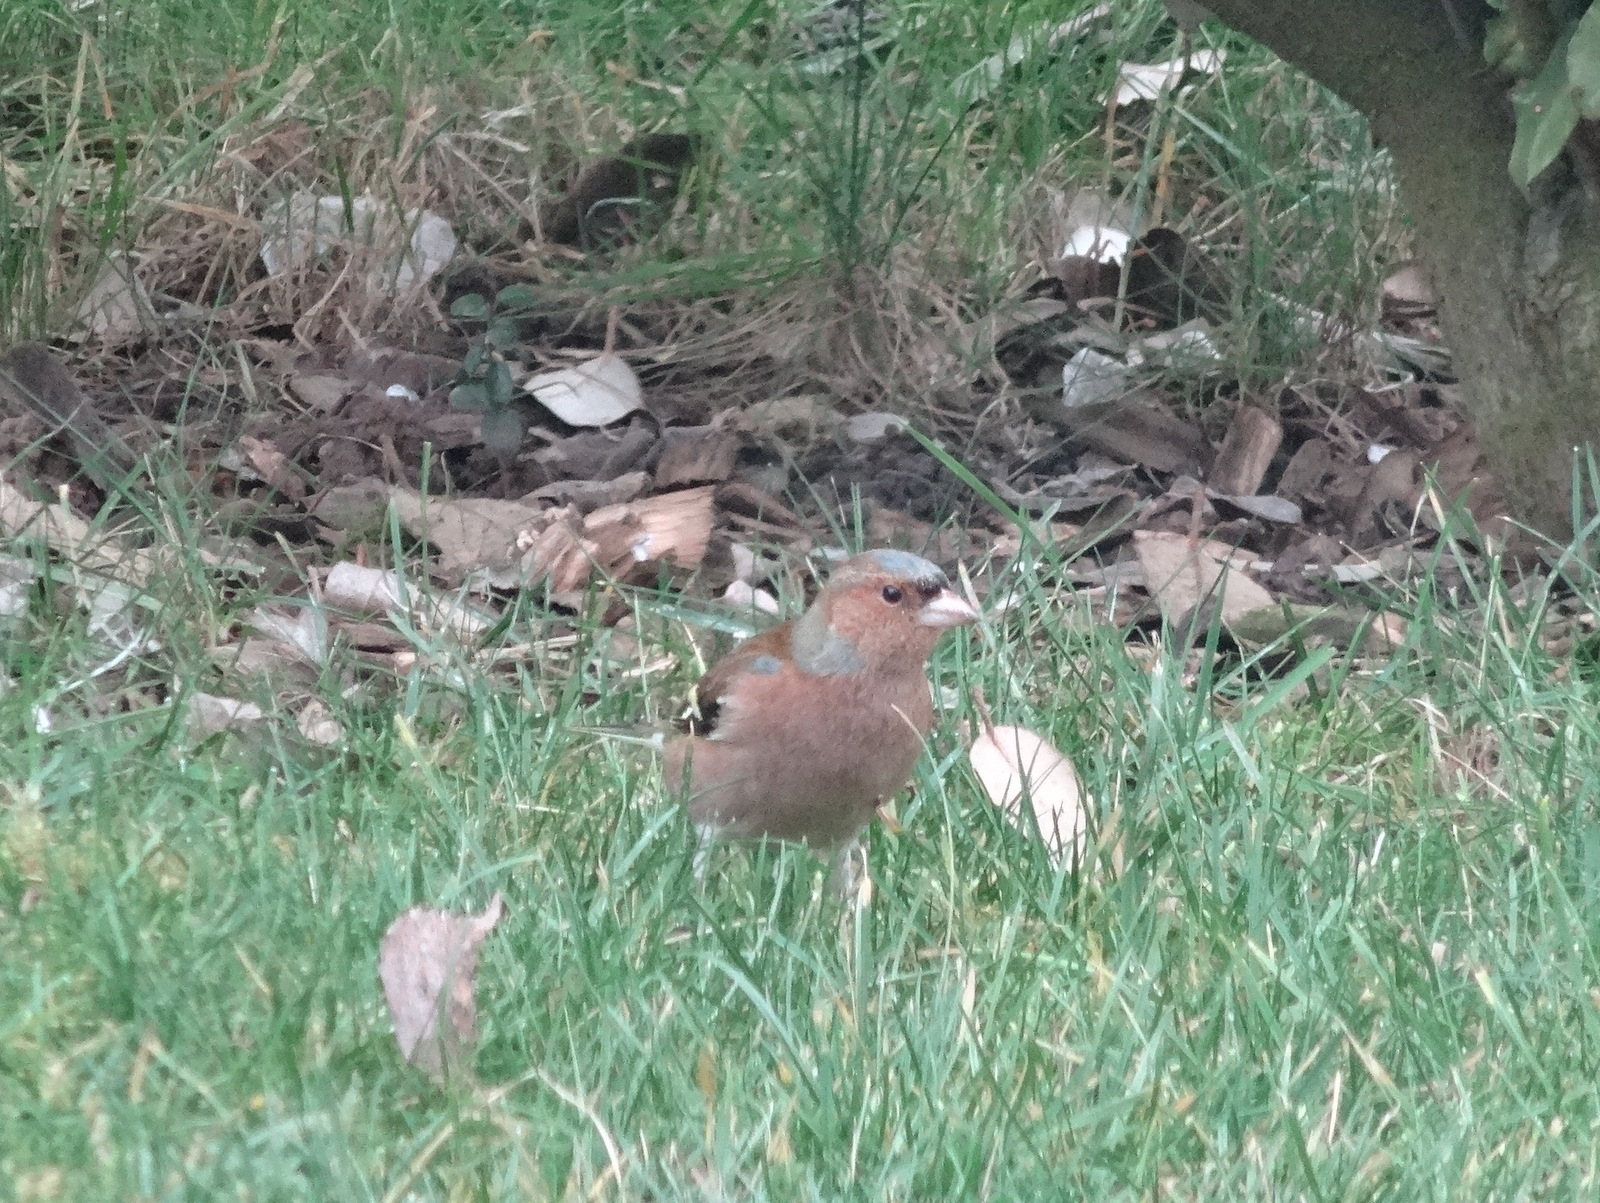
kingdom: Animalia
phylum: Chordata
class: Aves
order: Passeriformes
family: Fringillidae
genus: Fringilla
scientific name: Fringilla coelebs
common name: Common chaffinch
